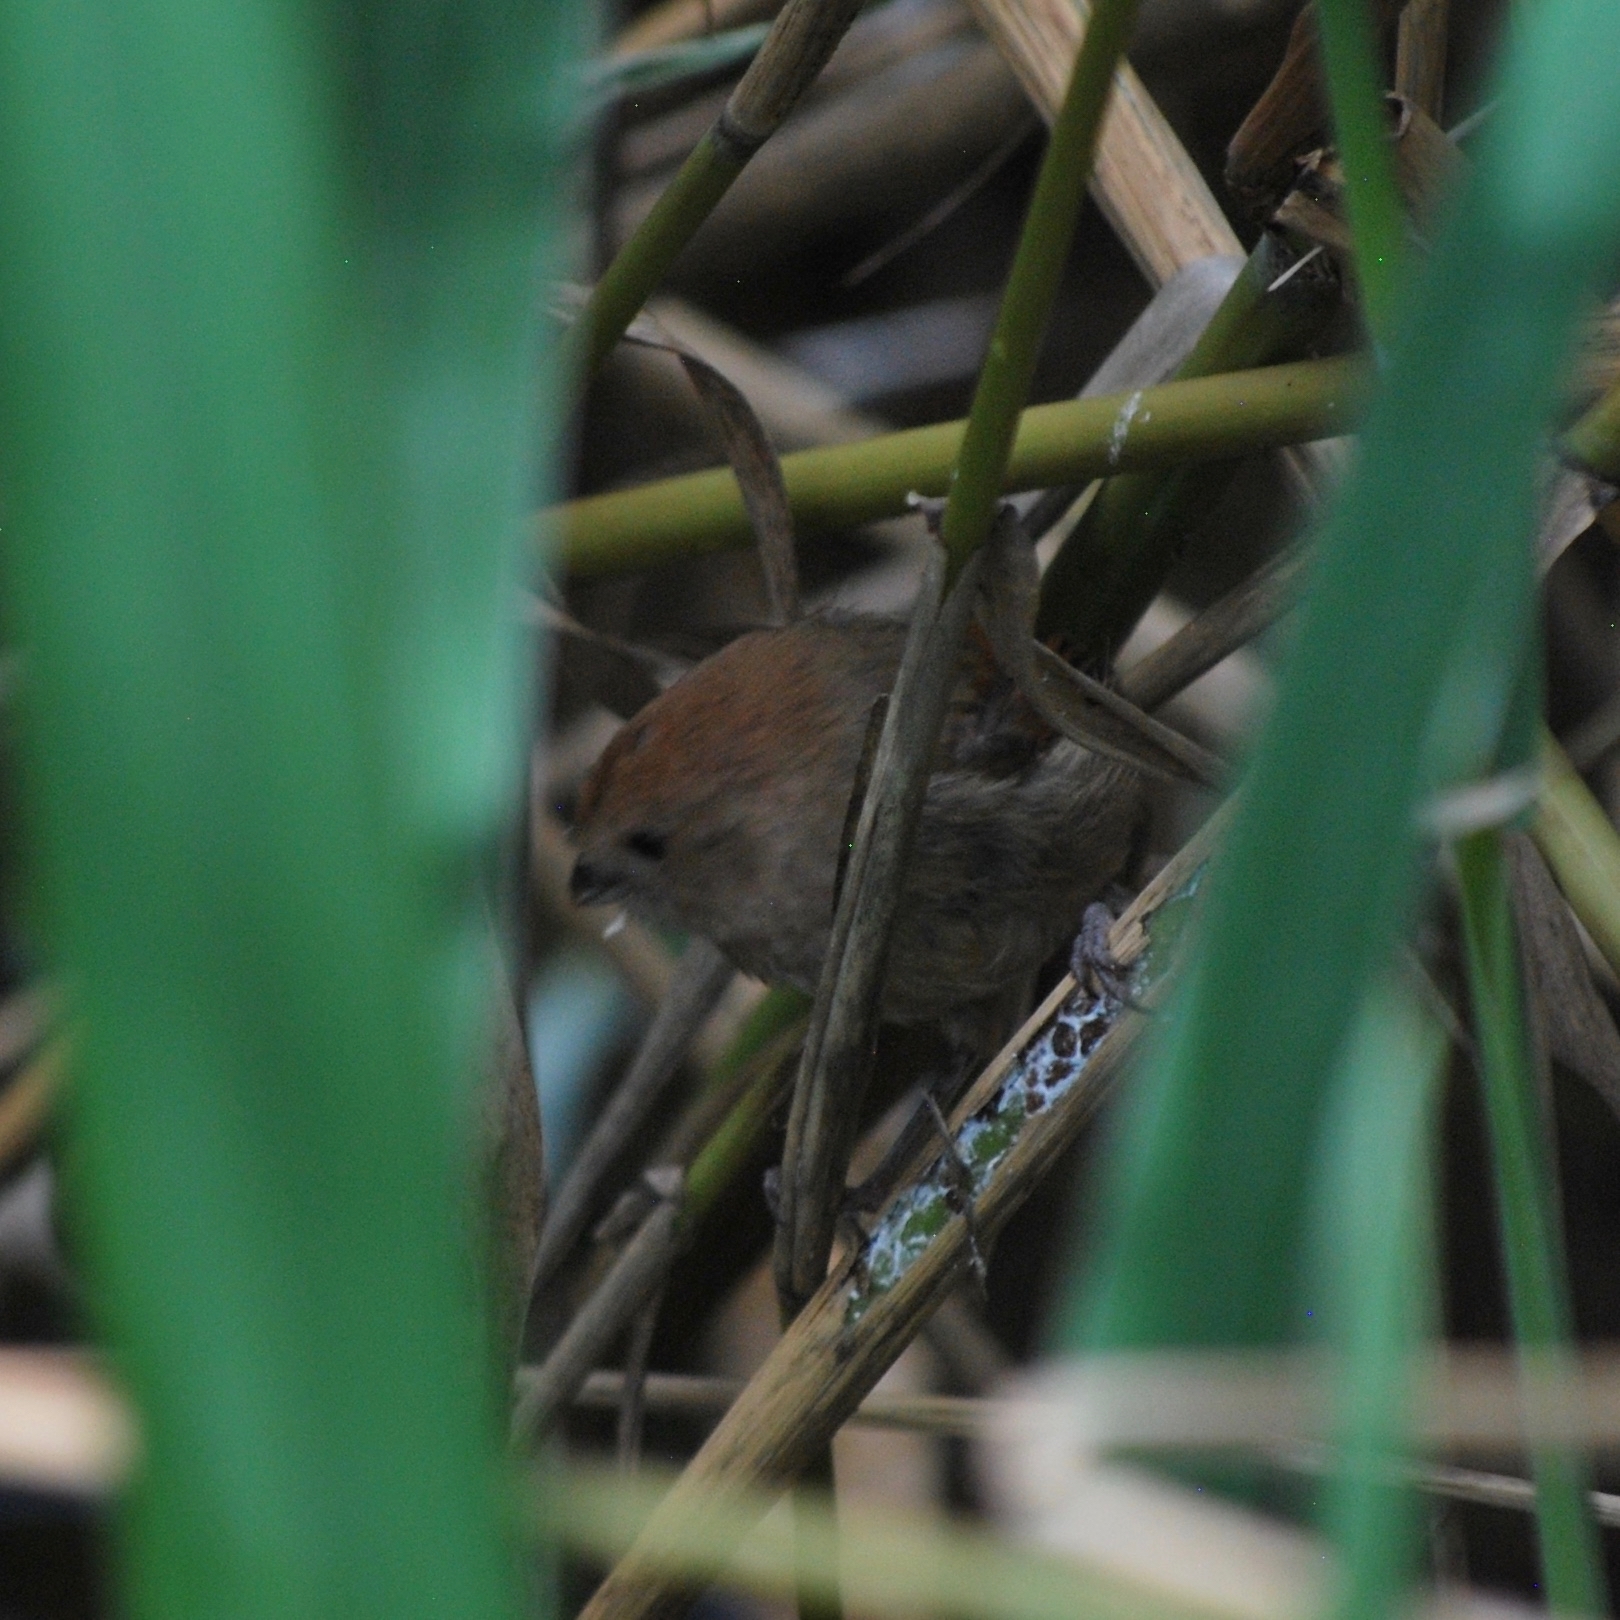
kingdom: Animalia
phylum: Chordata
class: Aves
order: Passeriformes
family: Sylviidae
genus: Sinosuthora
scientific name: Sinosuthora webbiana
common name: Vinous-throated parrotbill
